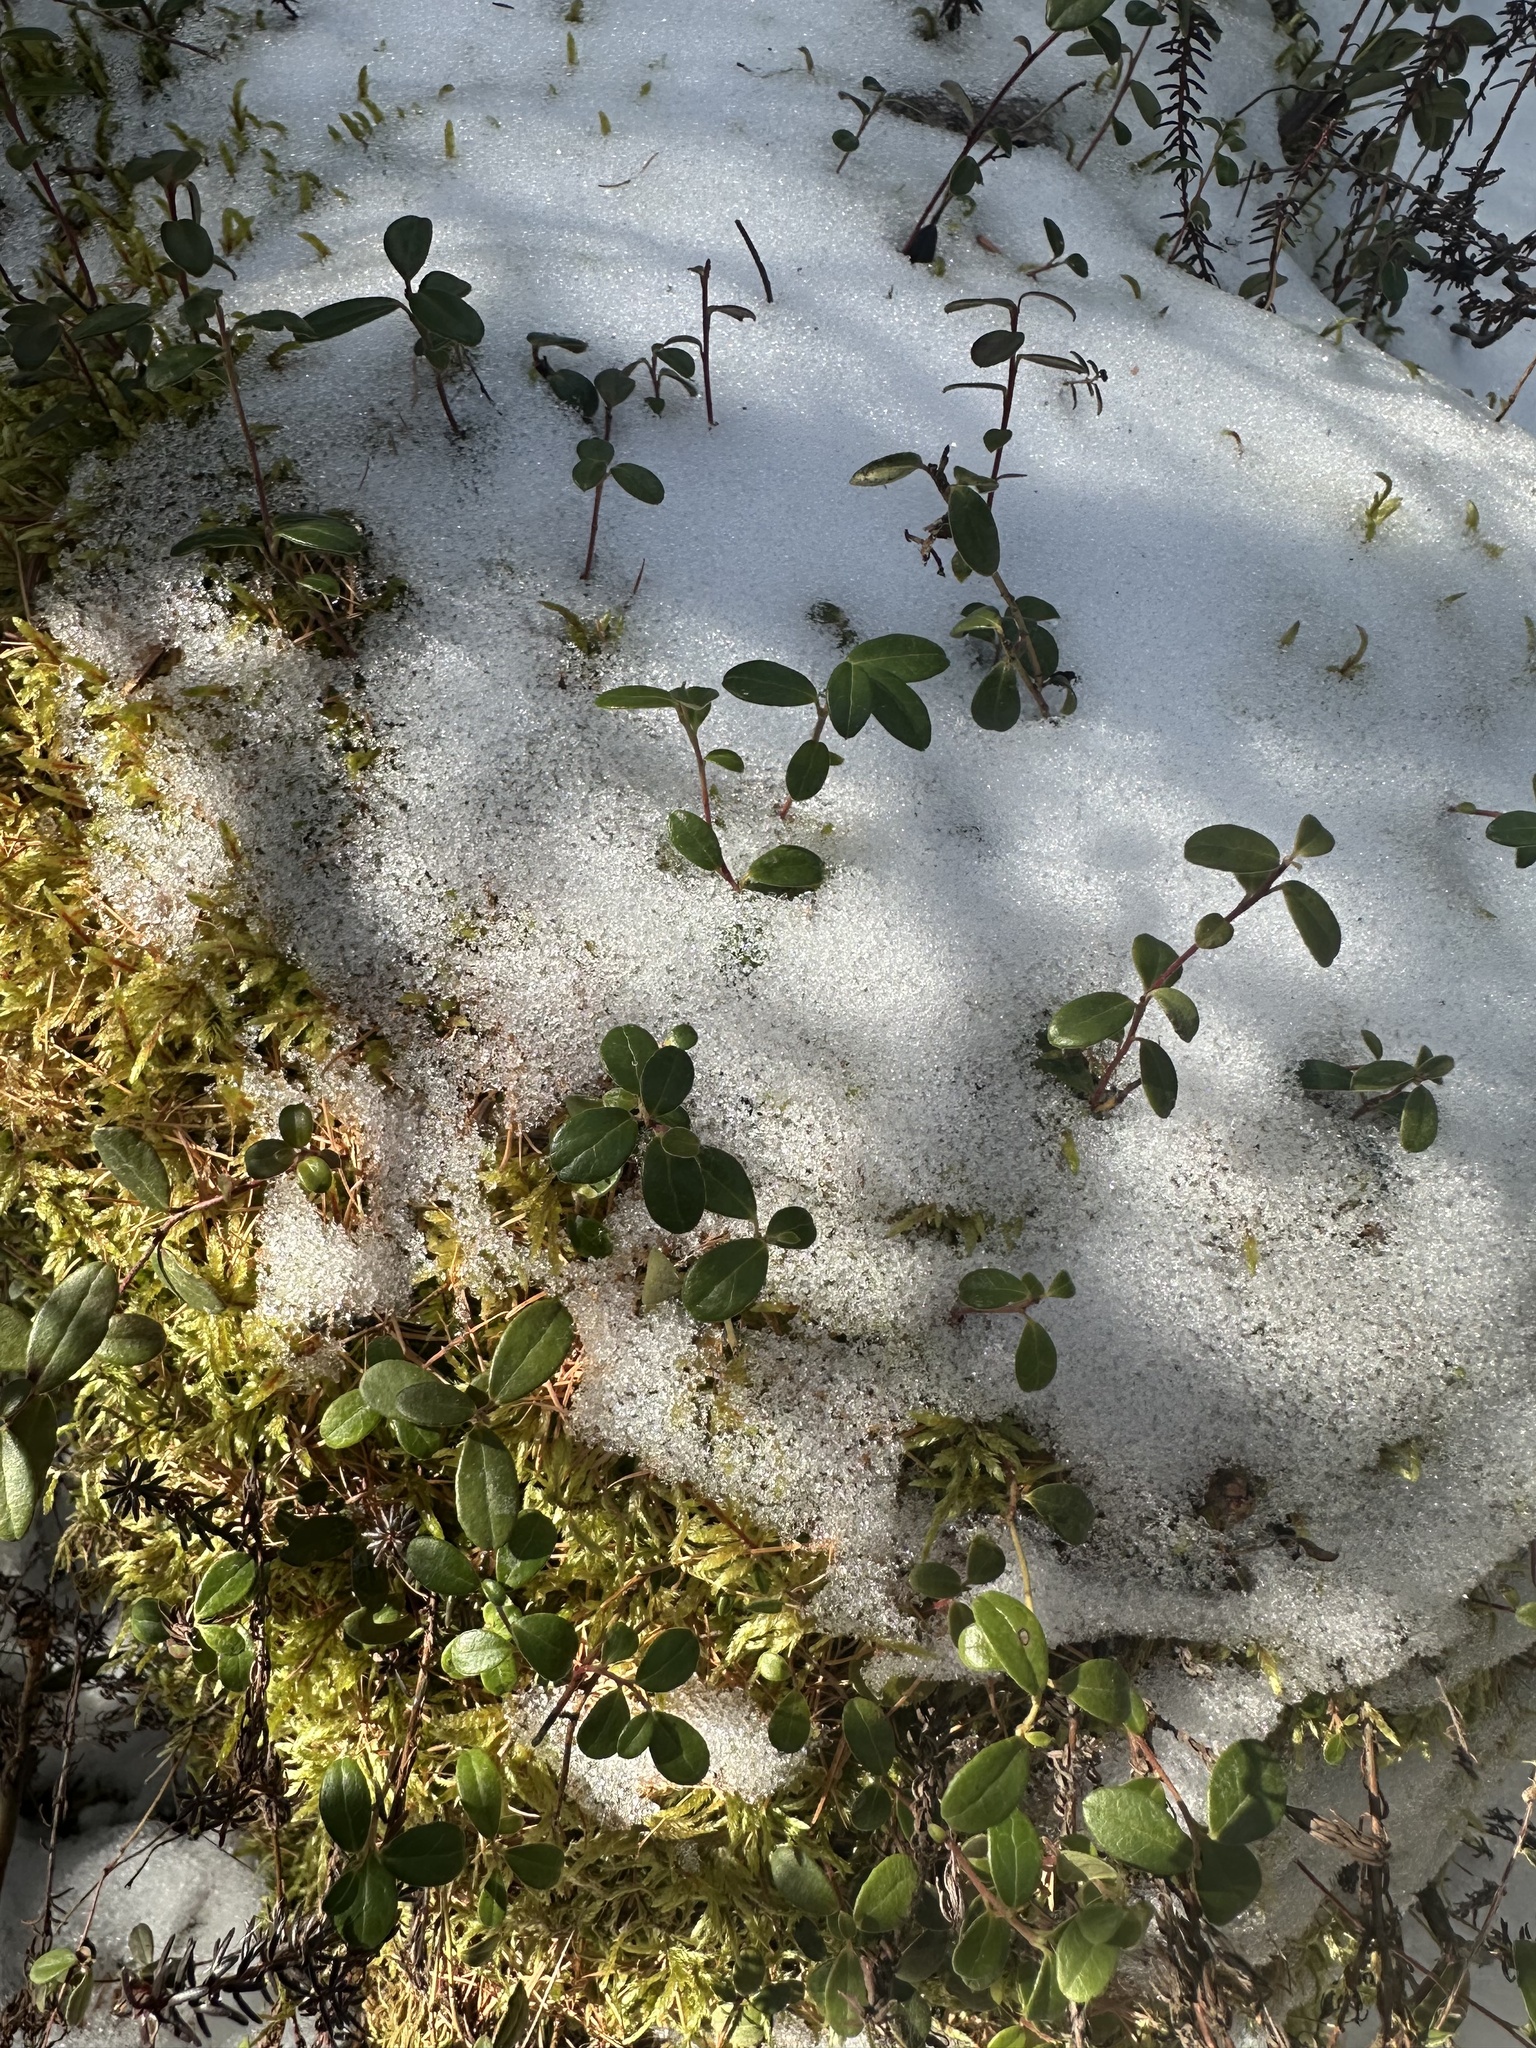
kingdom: Plantae
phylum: Tracheophyta
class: Magnoliopsida
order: Ericales
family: Ericaceae
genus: Vaccinium
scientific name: Vaccinium vitis-idaea
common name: Cowberry
